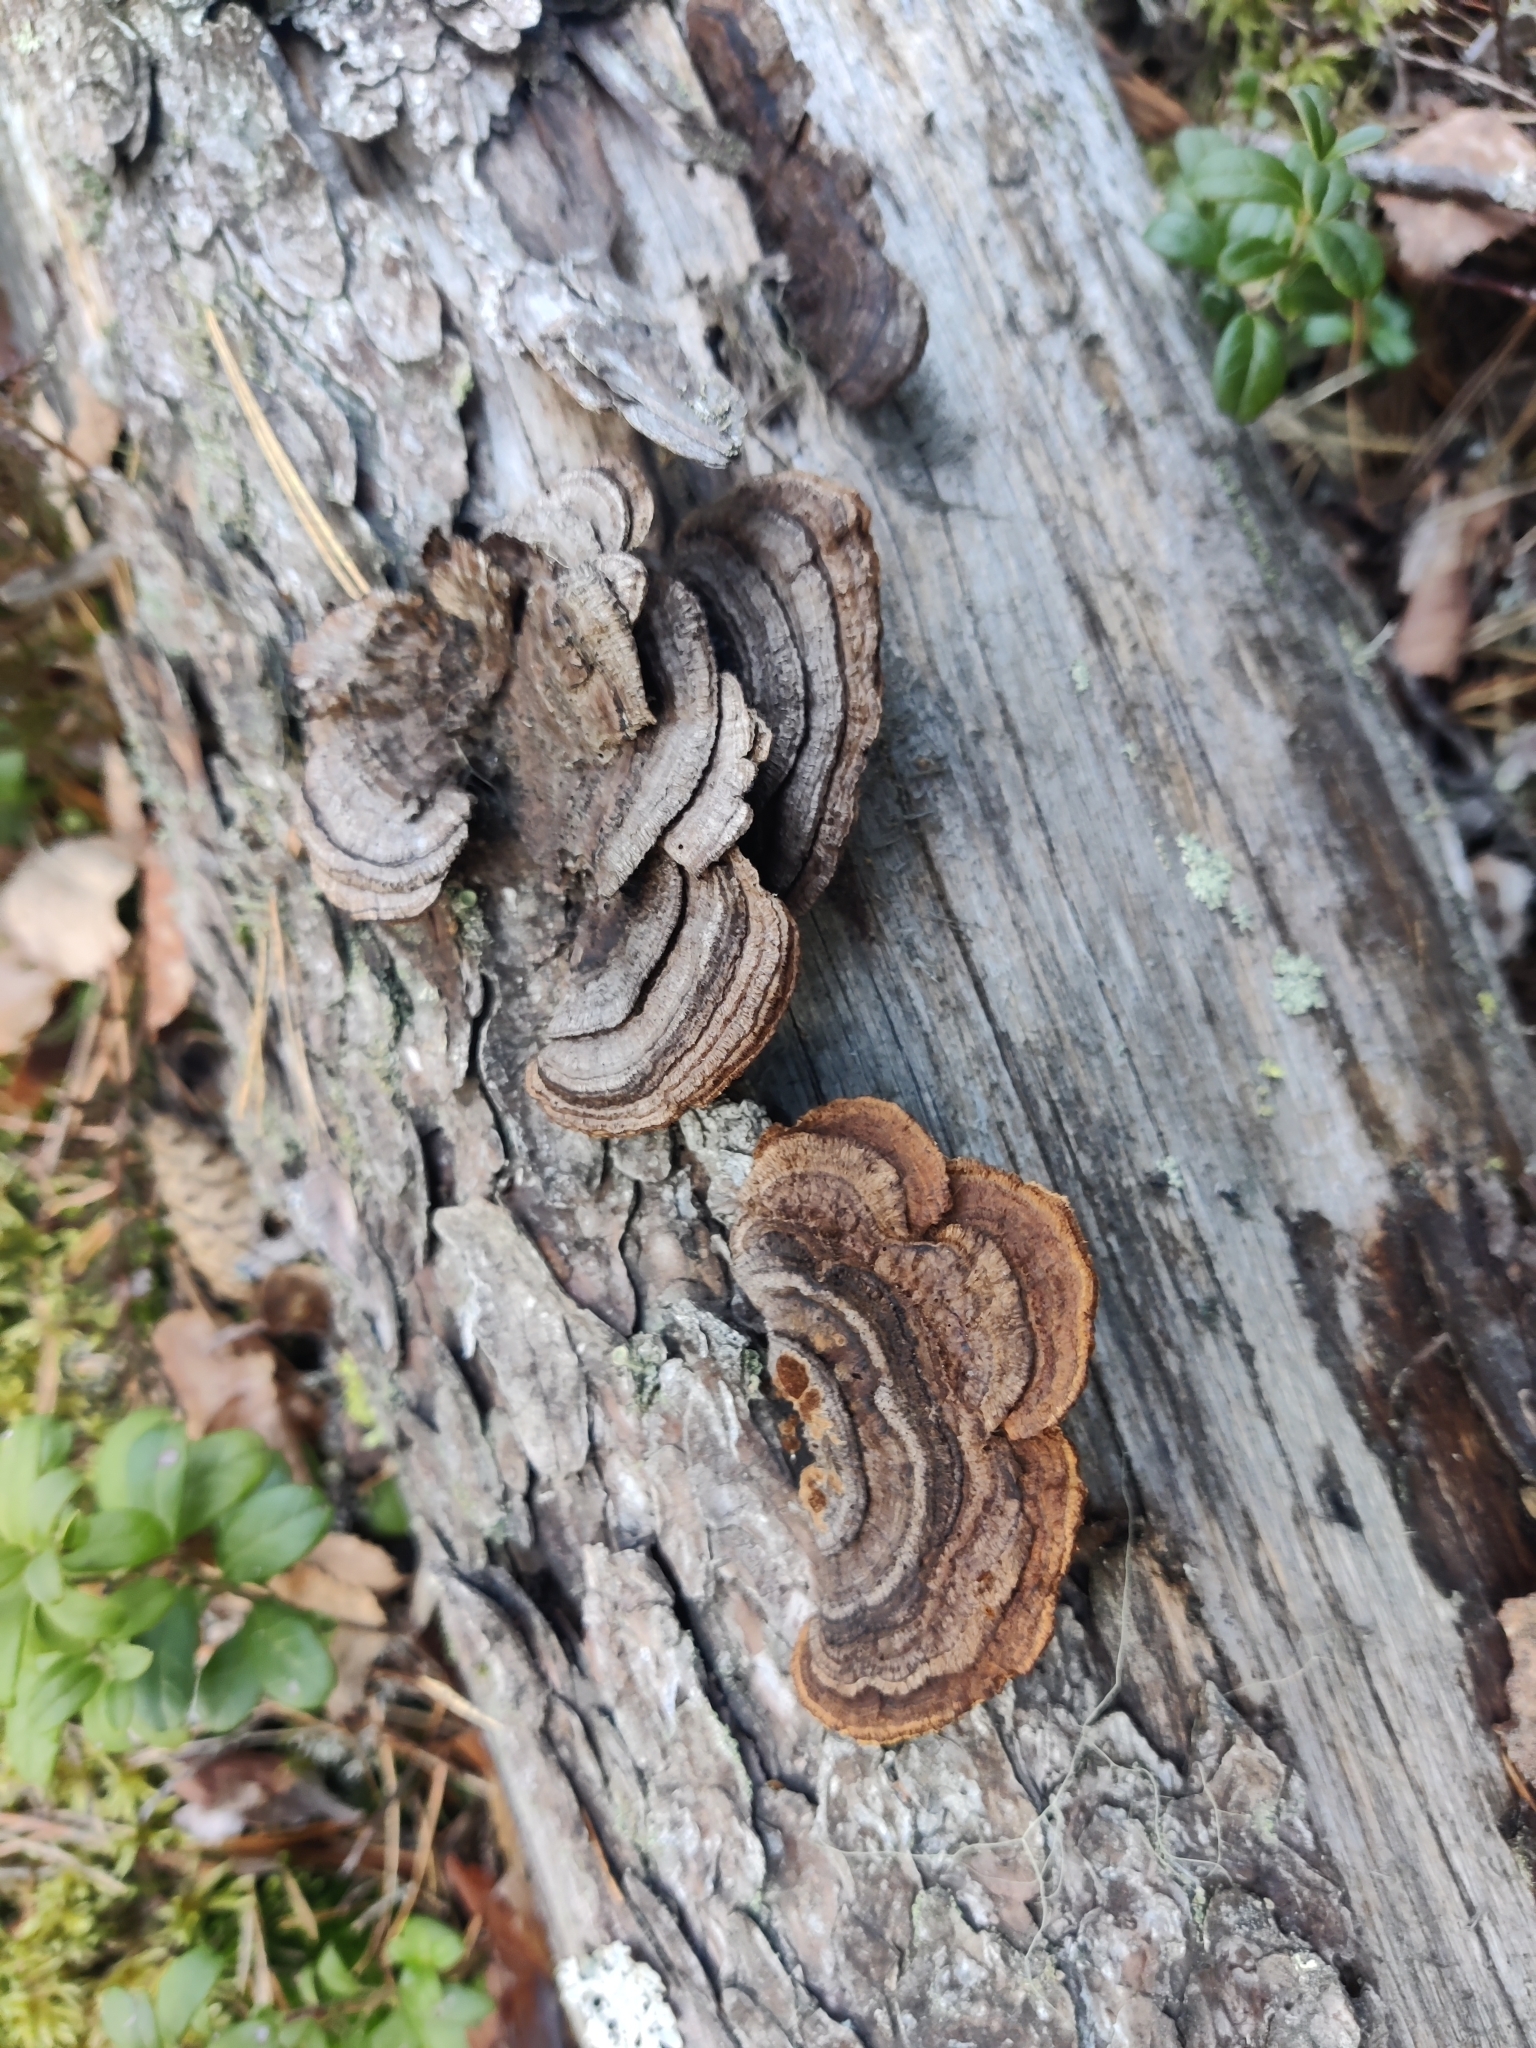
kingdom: Fungi
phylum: Basidiomycota
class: Agaricomycetes
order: Gloeophyllales
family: Gloeophyllaceae
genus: Gloeophyllum
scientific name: Gloeophyllum sepiarium
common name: Conifer mazegill
